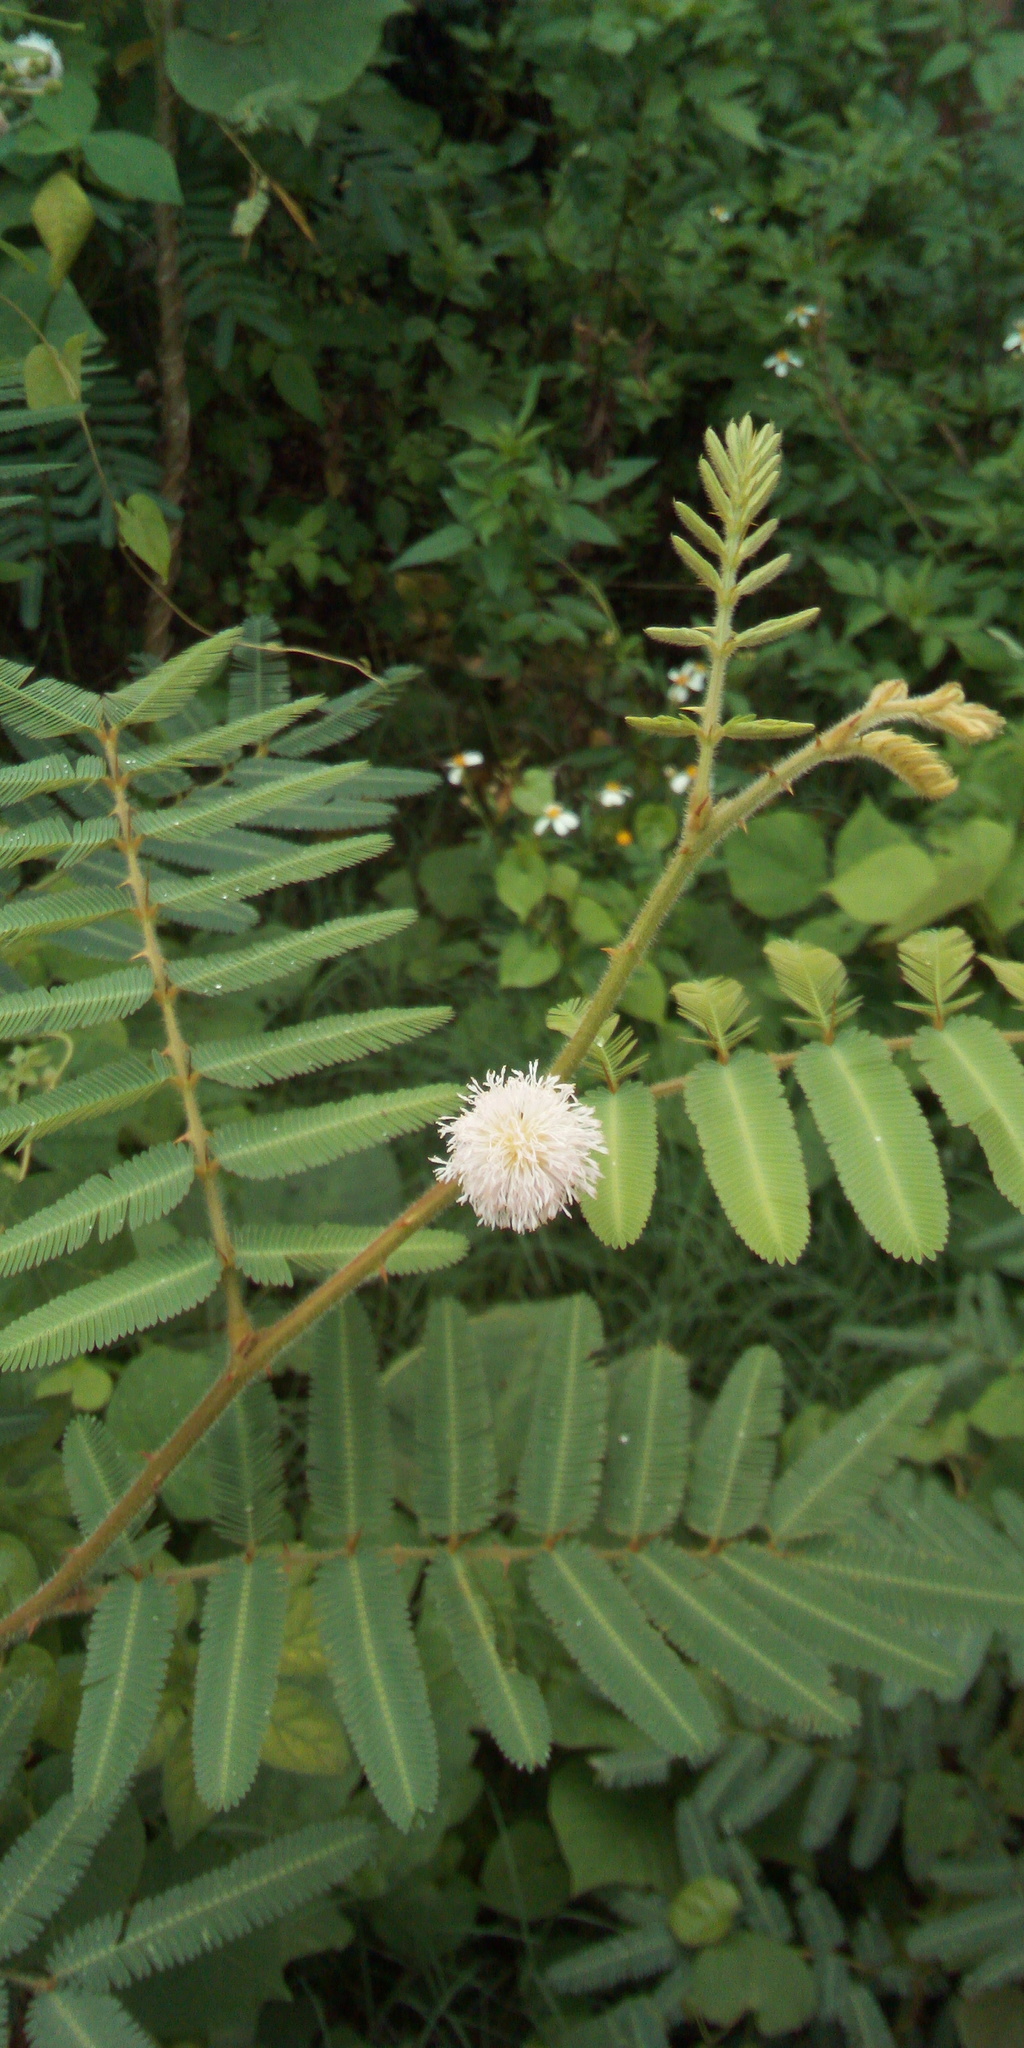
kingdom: Plantae
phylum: Tracheophyta
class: Magnoliopsida
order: Fabales
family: Fabaceae
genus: Mimosa
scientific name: Mimosa pigra
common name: Black mimosa
